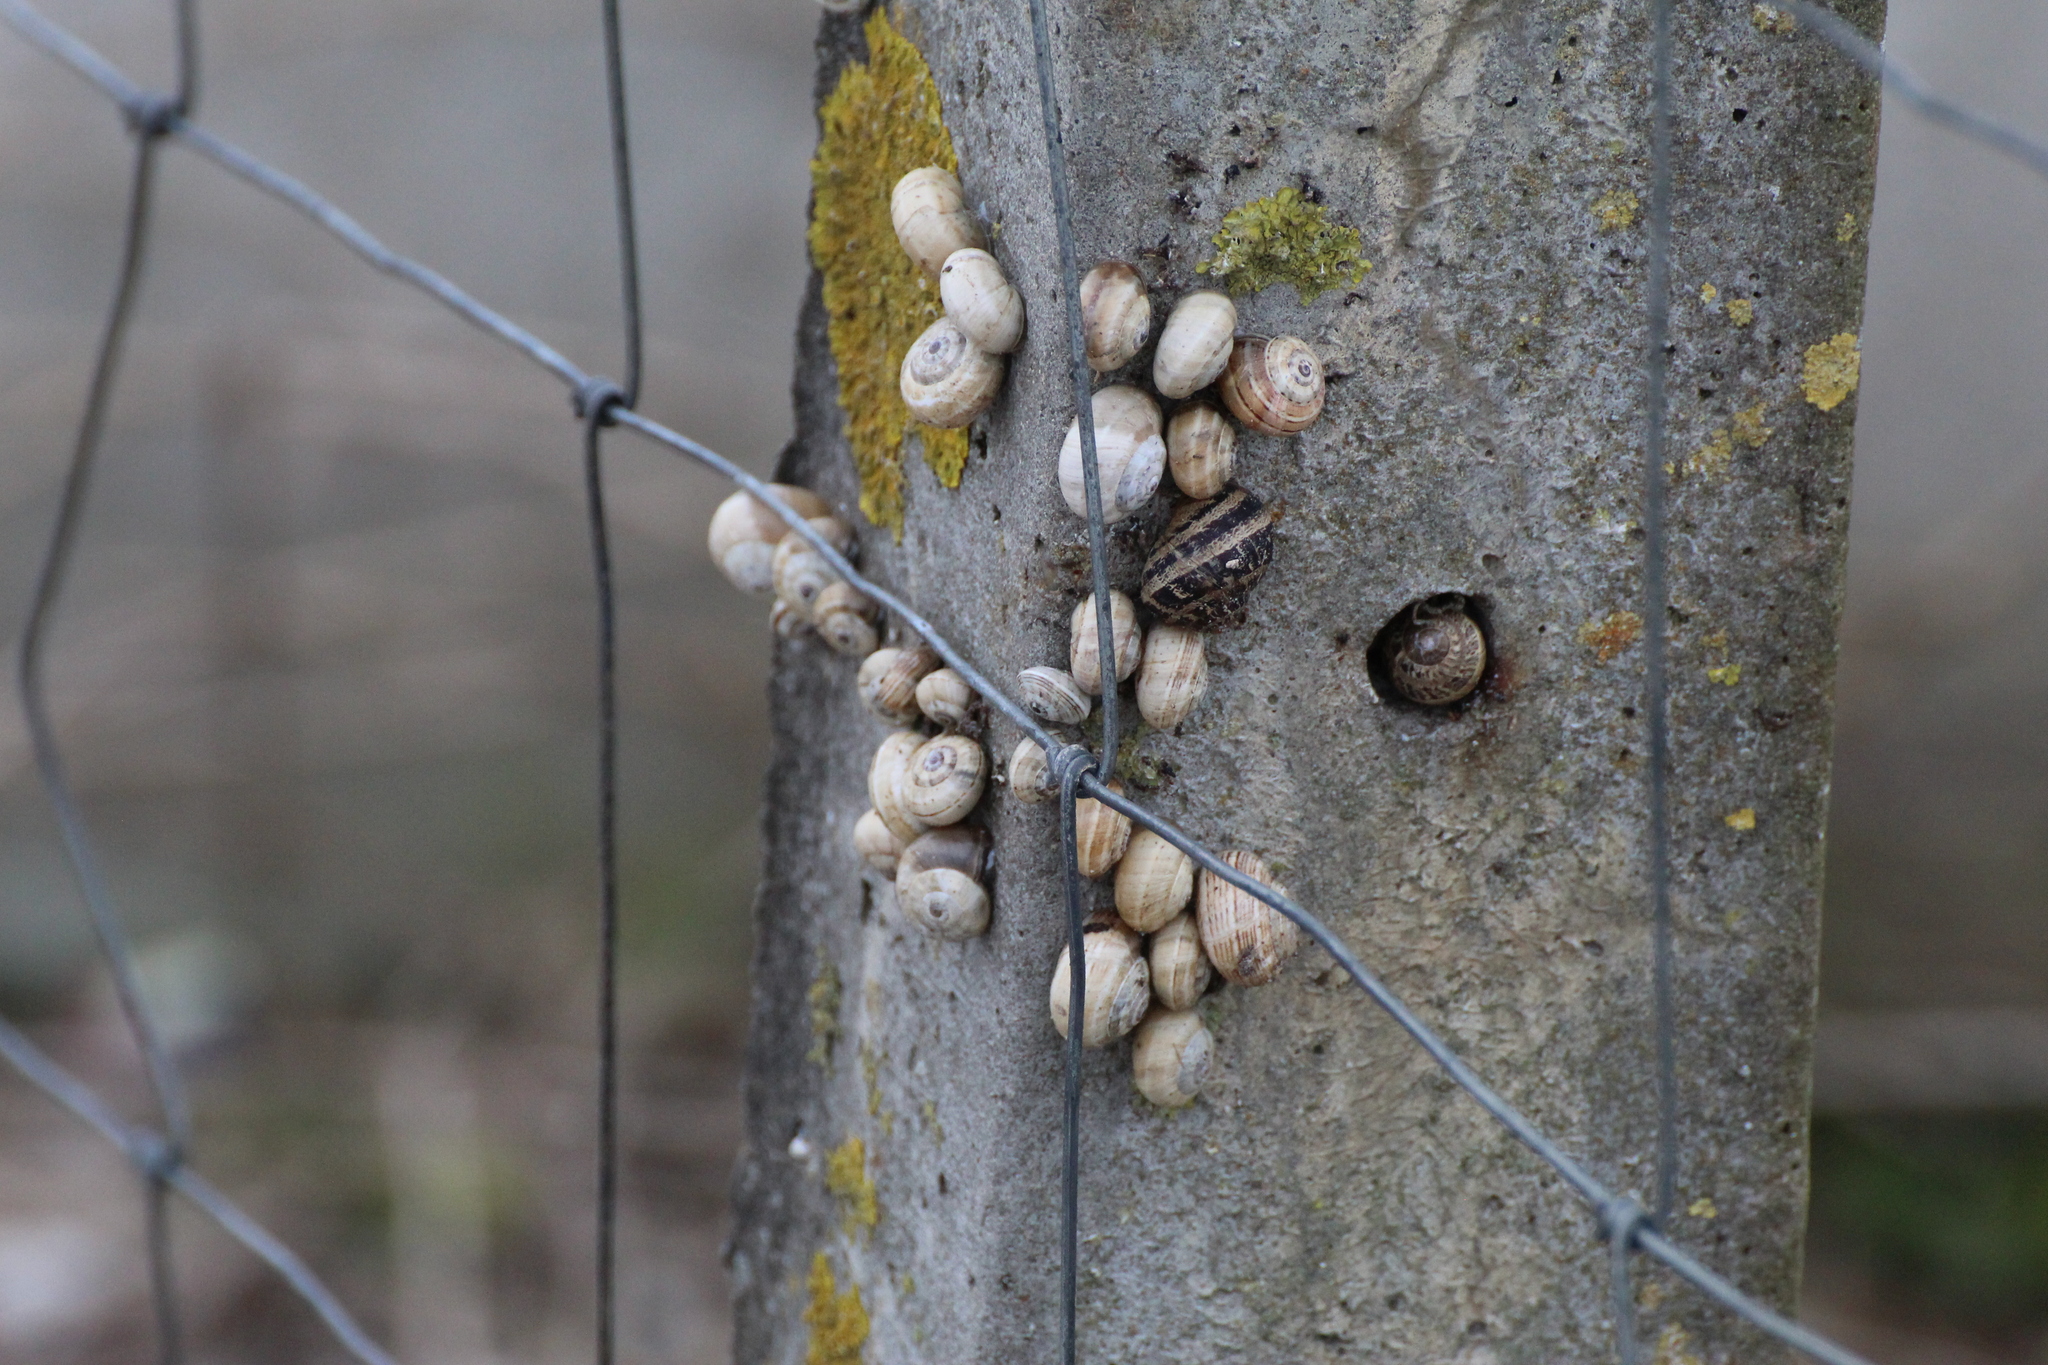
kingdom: Animalia
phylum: Mollusca
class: Gastropoda
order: Stylommatophora
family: Helicidae
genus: Theba
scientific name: Theba pisana
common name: White snail
